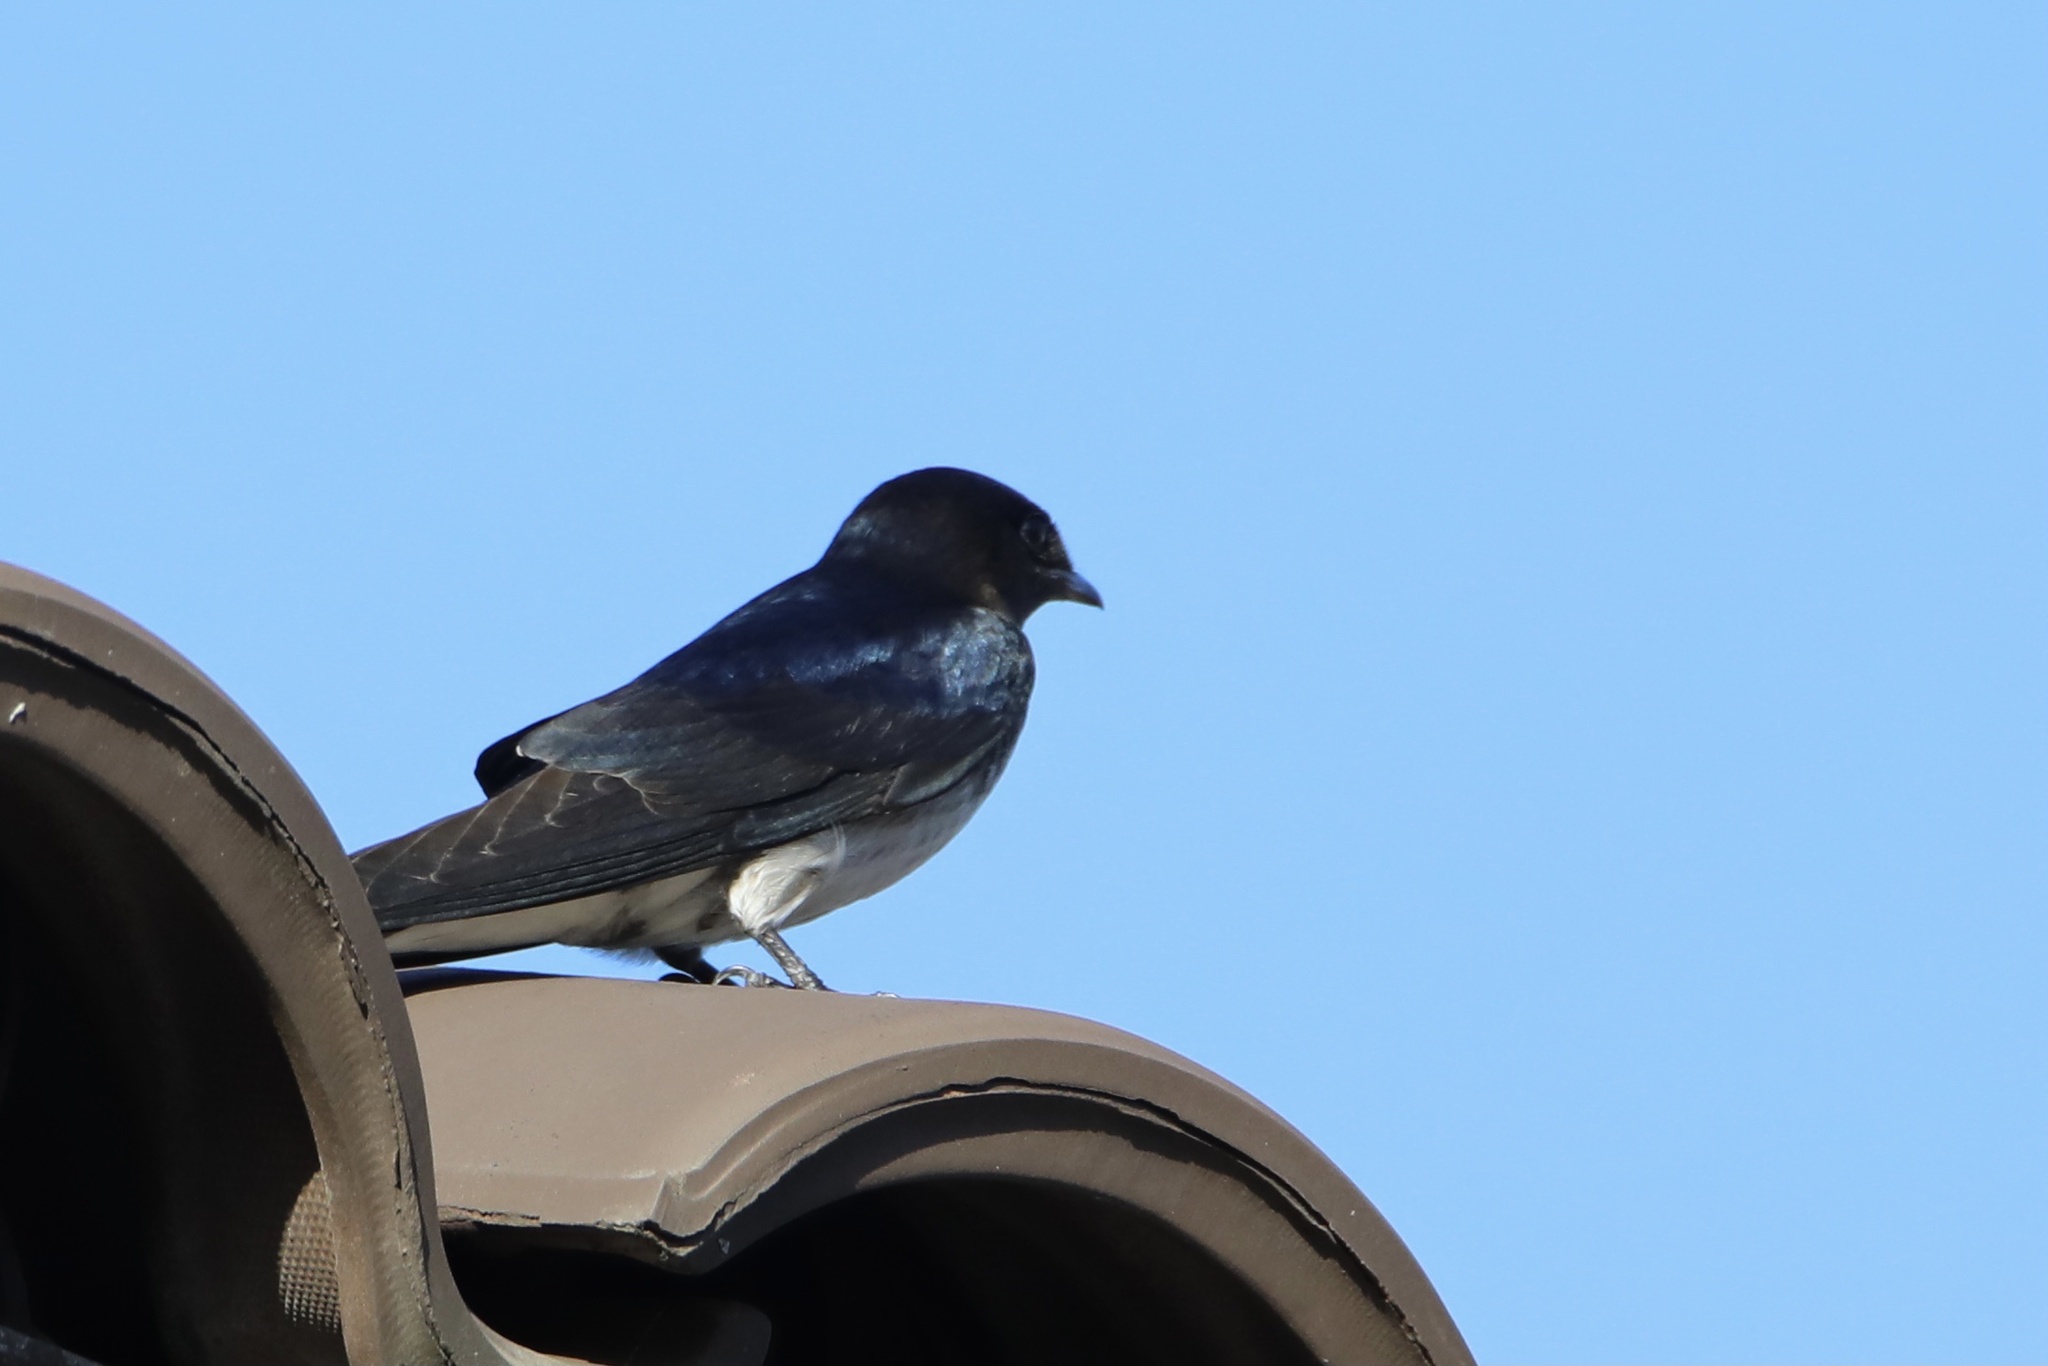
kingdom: Animalia
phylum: Chordata
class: Aves
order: Passeriformes
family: Hirundinidae
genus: Progne
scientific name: Progne chalybea
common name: Grey-breasted martin
